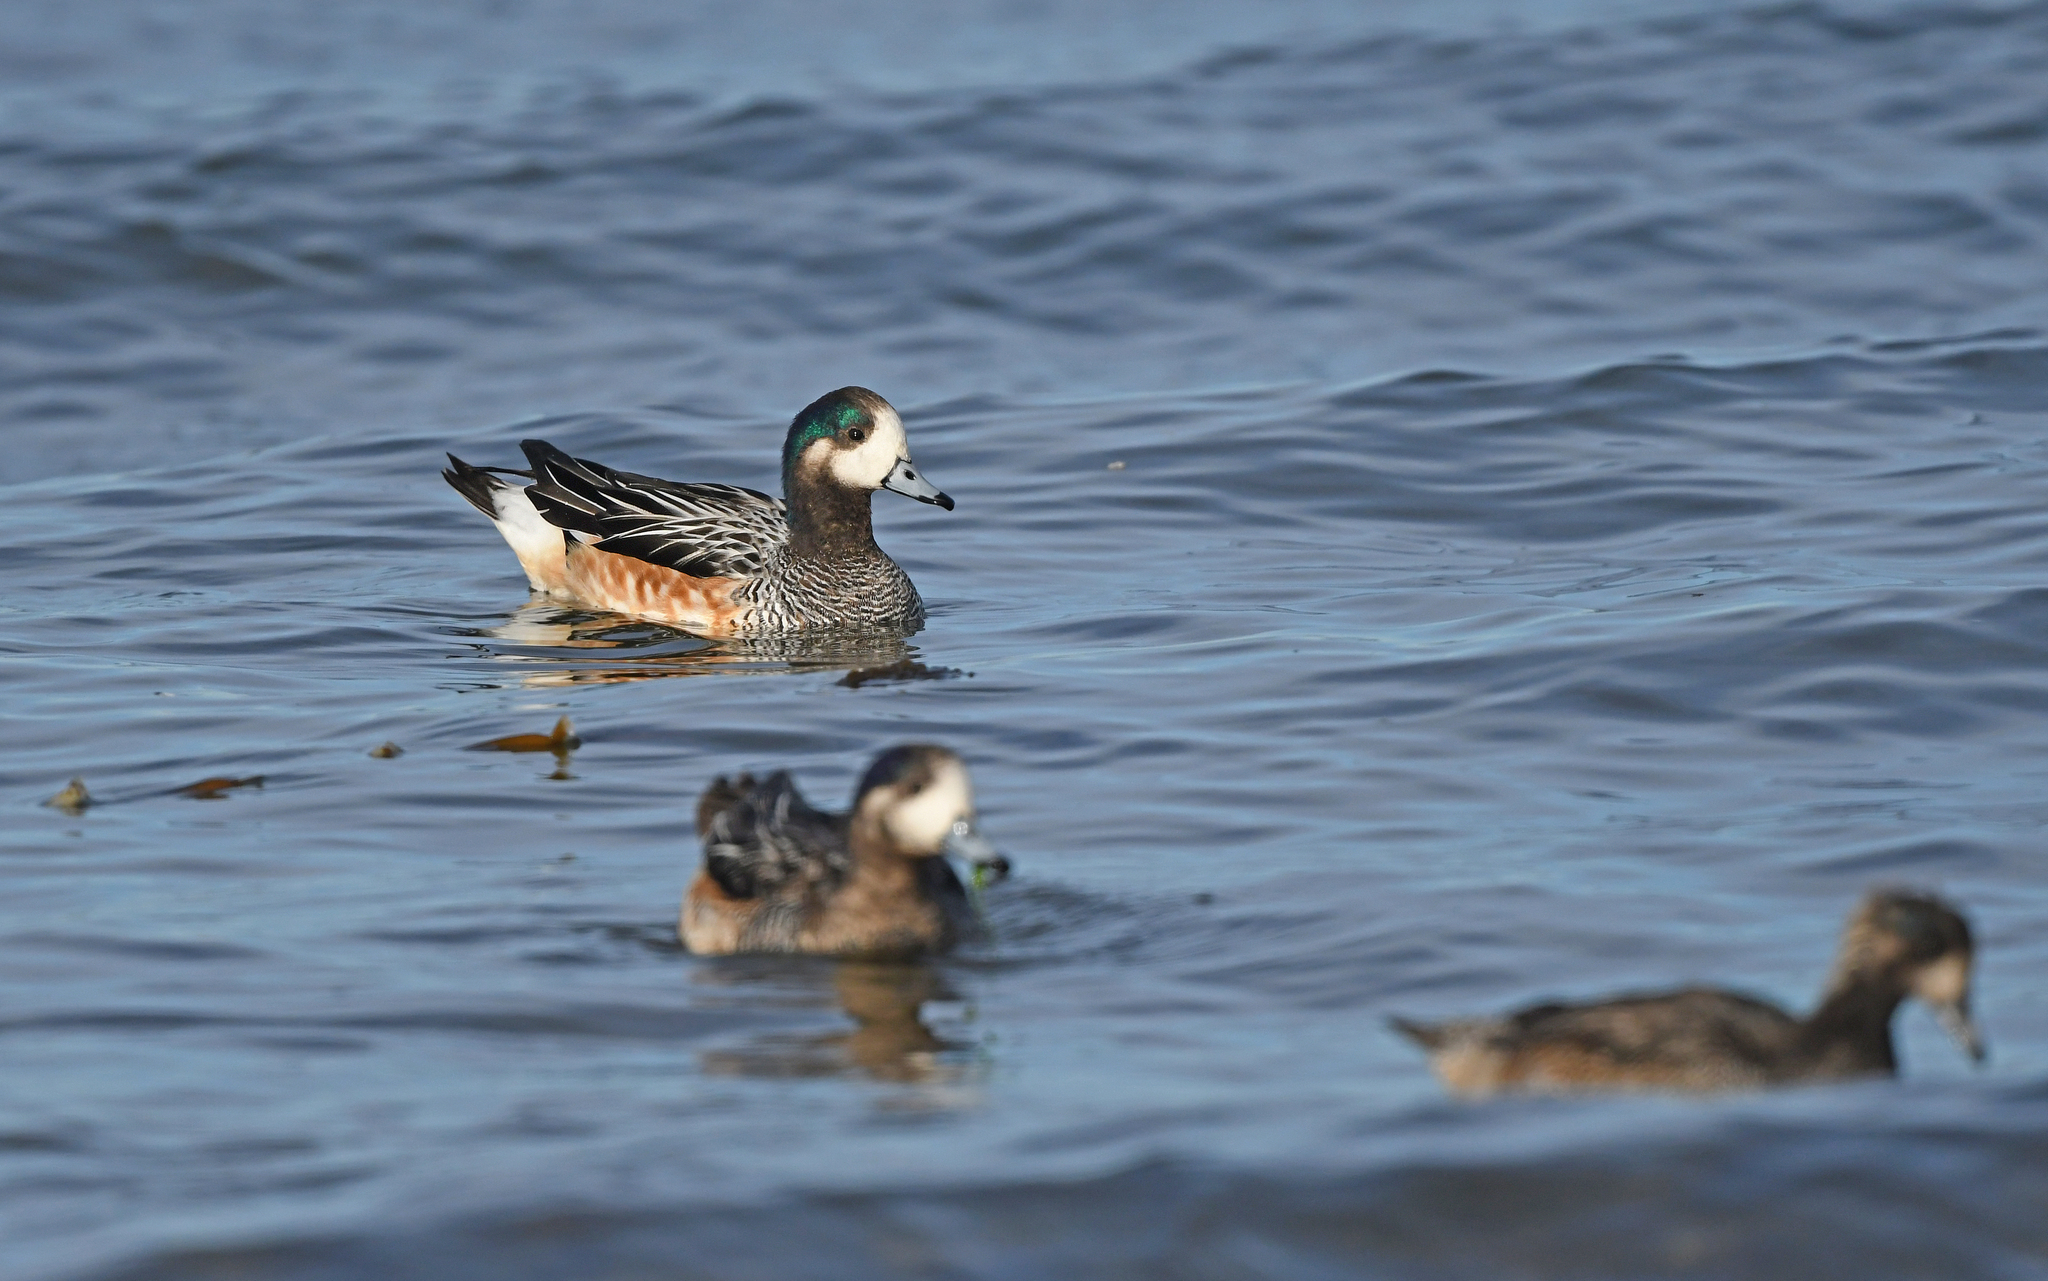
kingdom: Animalia
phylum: Chordata
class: Aves
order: Anseriformes
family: Anatidae
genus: Mareca
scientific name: Mareca sibilatrix
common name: Chiloe wigeon
